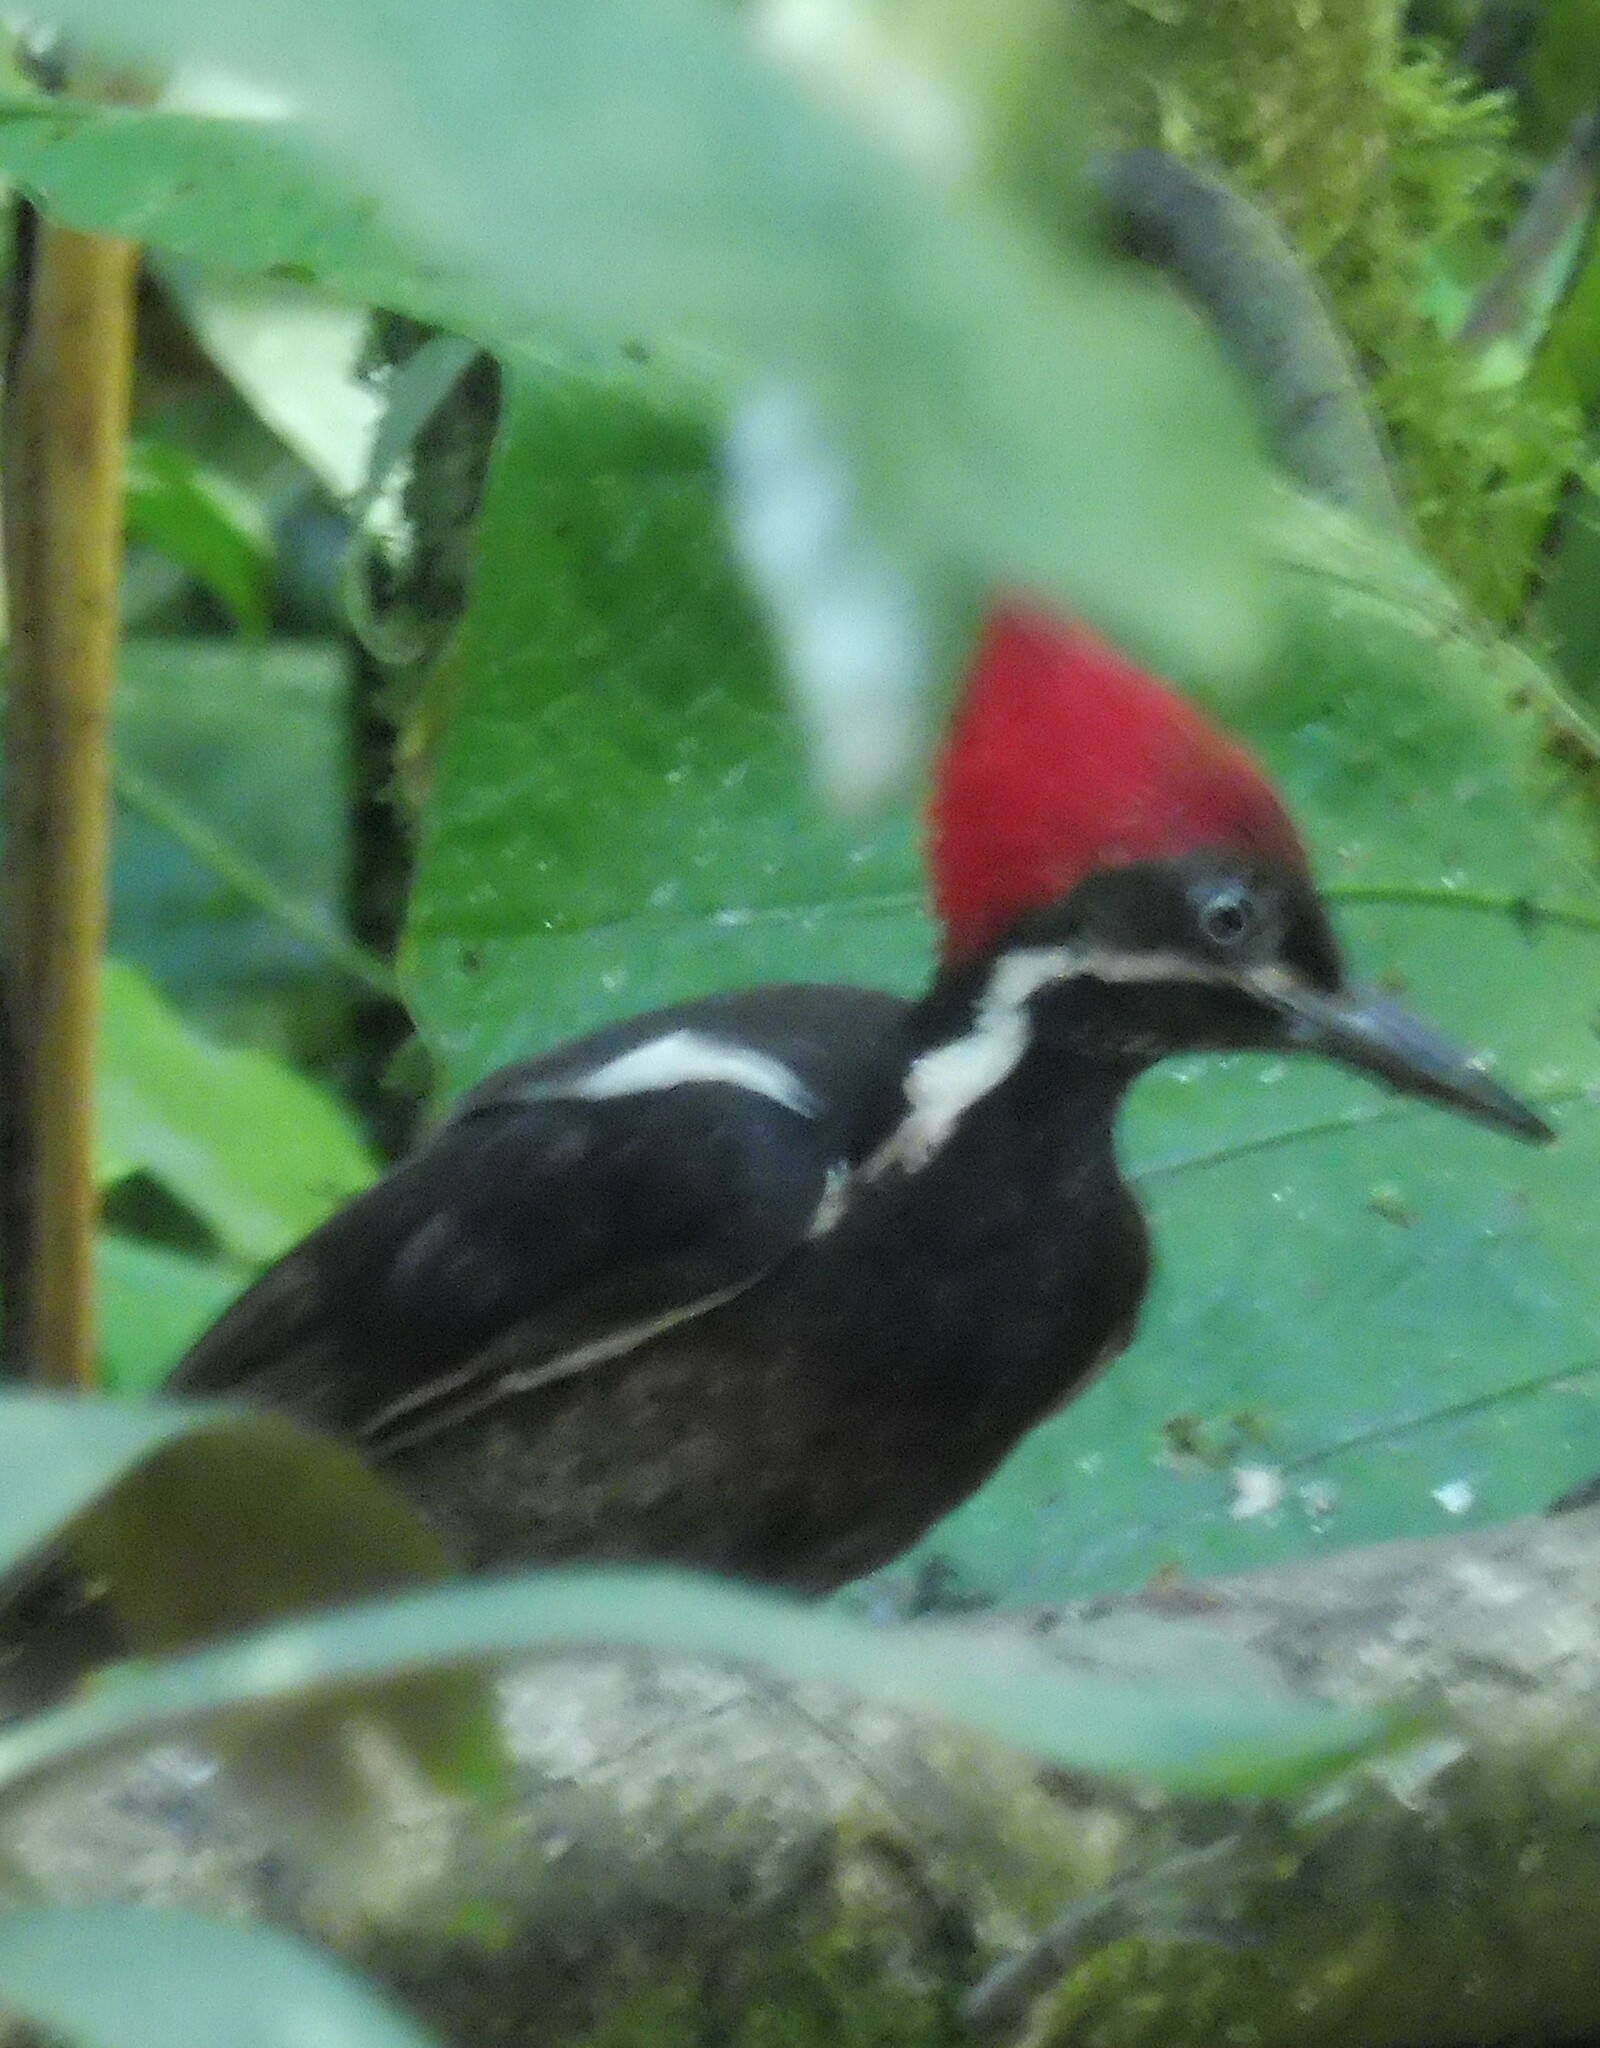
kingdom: Animalia
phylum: Chordata
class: Aves
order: Piciformes
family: Picidae
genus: Campephilus
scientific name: Campephilus pollens
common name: Powerful woodpecker
